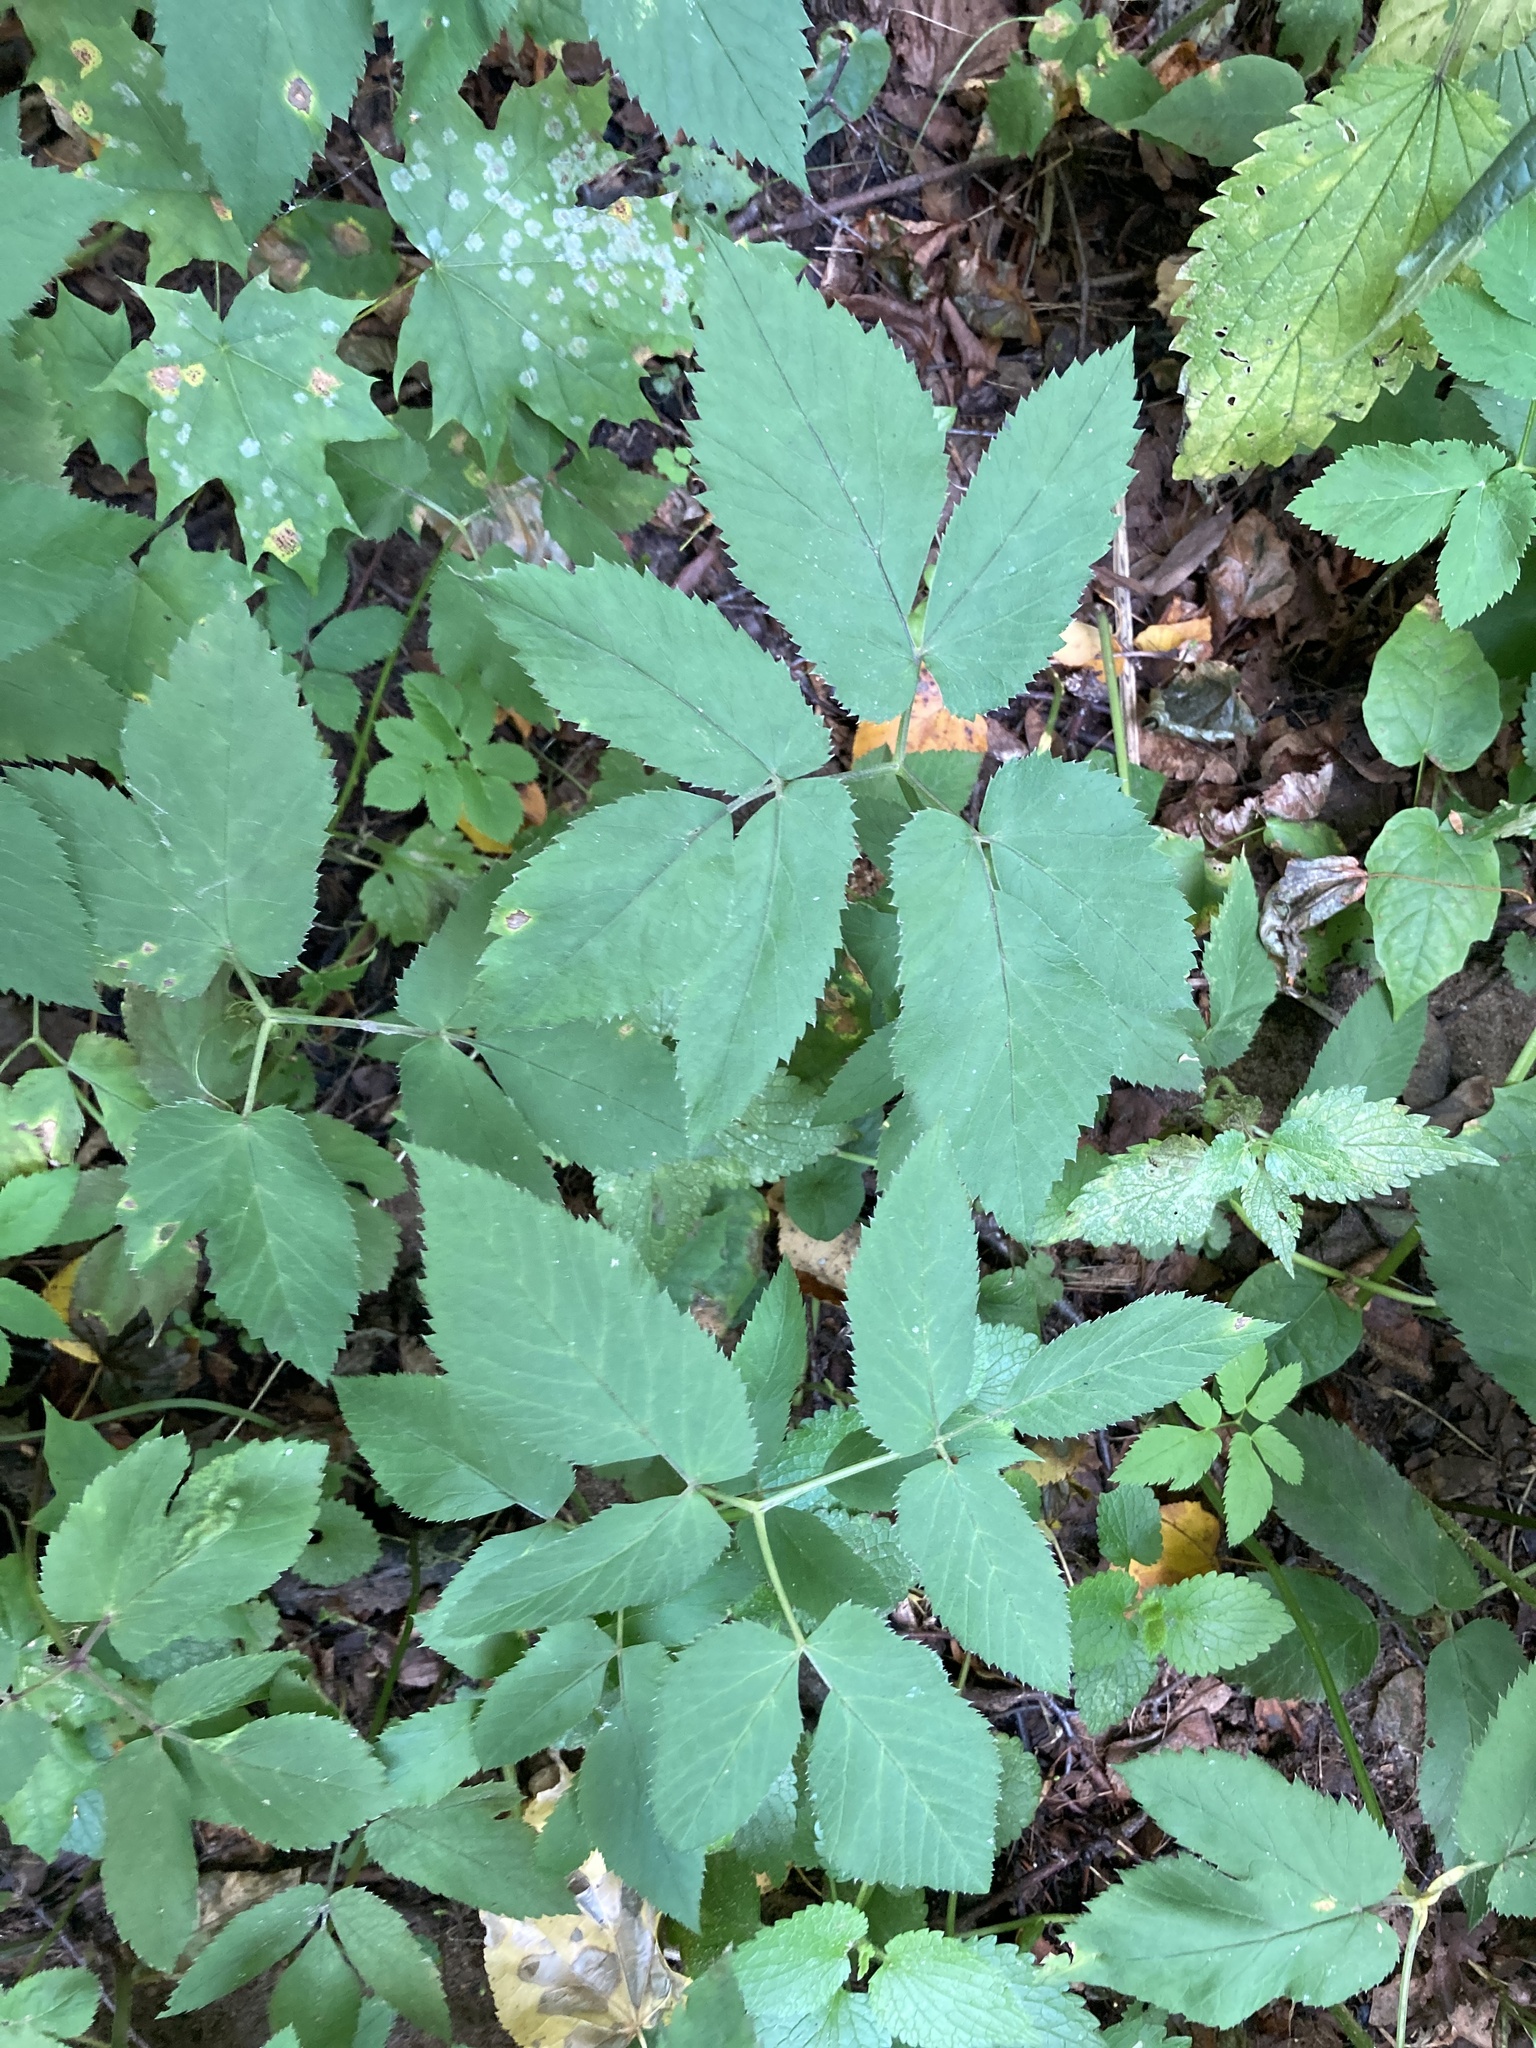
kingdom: Plantae
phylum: Tracheophyta
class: Magnoliopsida
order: Apiales
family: Apiaceae
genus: Aegopodium
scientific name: Aegopodium podagraria
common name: Ground-elder
